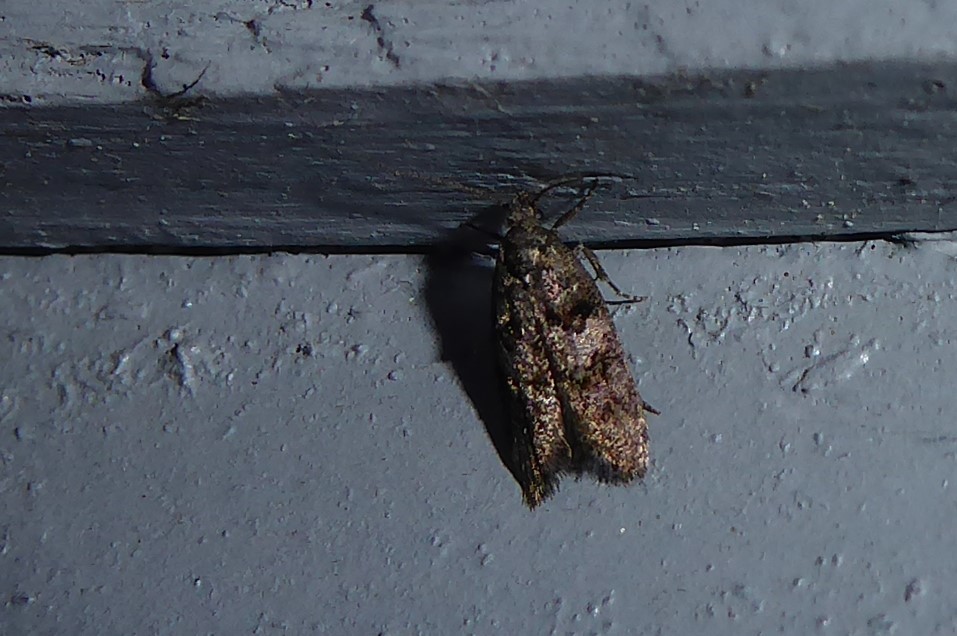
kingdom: Animalia
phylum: Arthropoda
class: Insecta
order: Lepidoptera
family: Oecophoridae
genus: Trachypepla
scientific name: Trachypepla contritella
